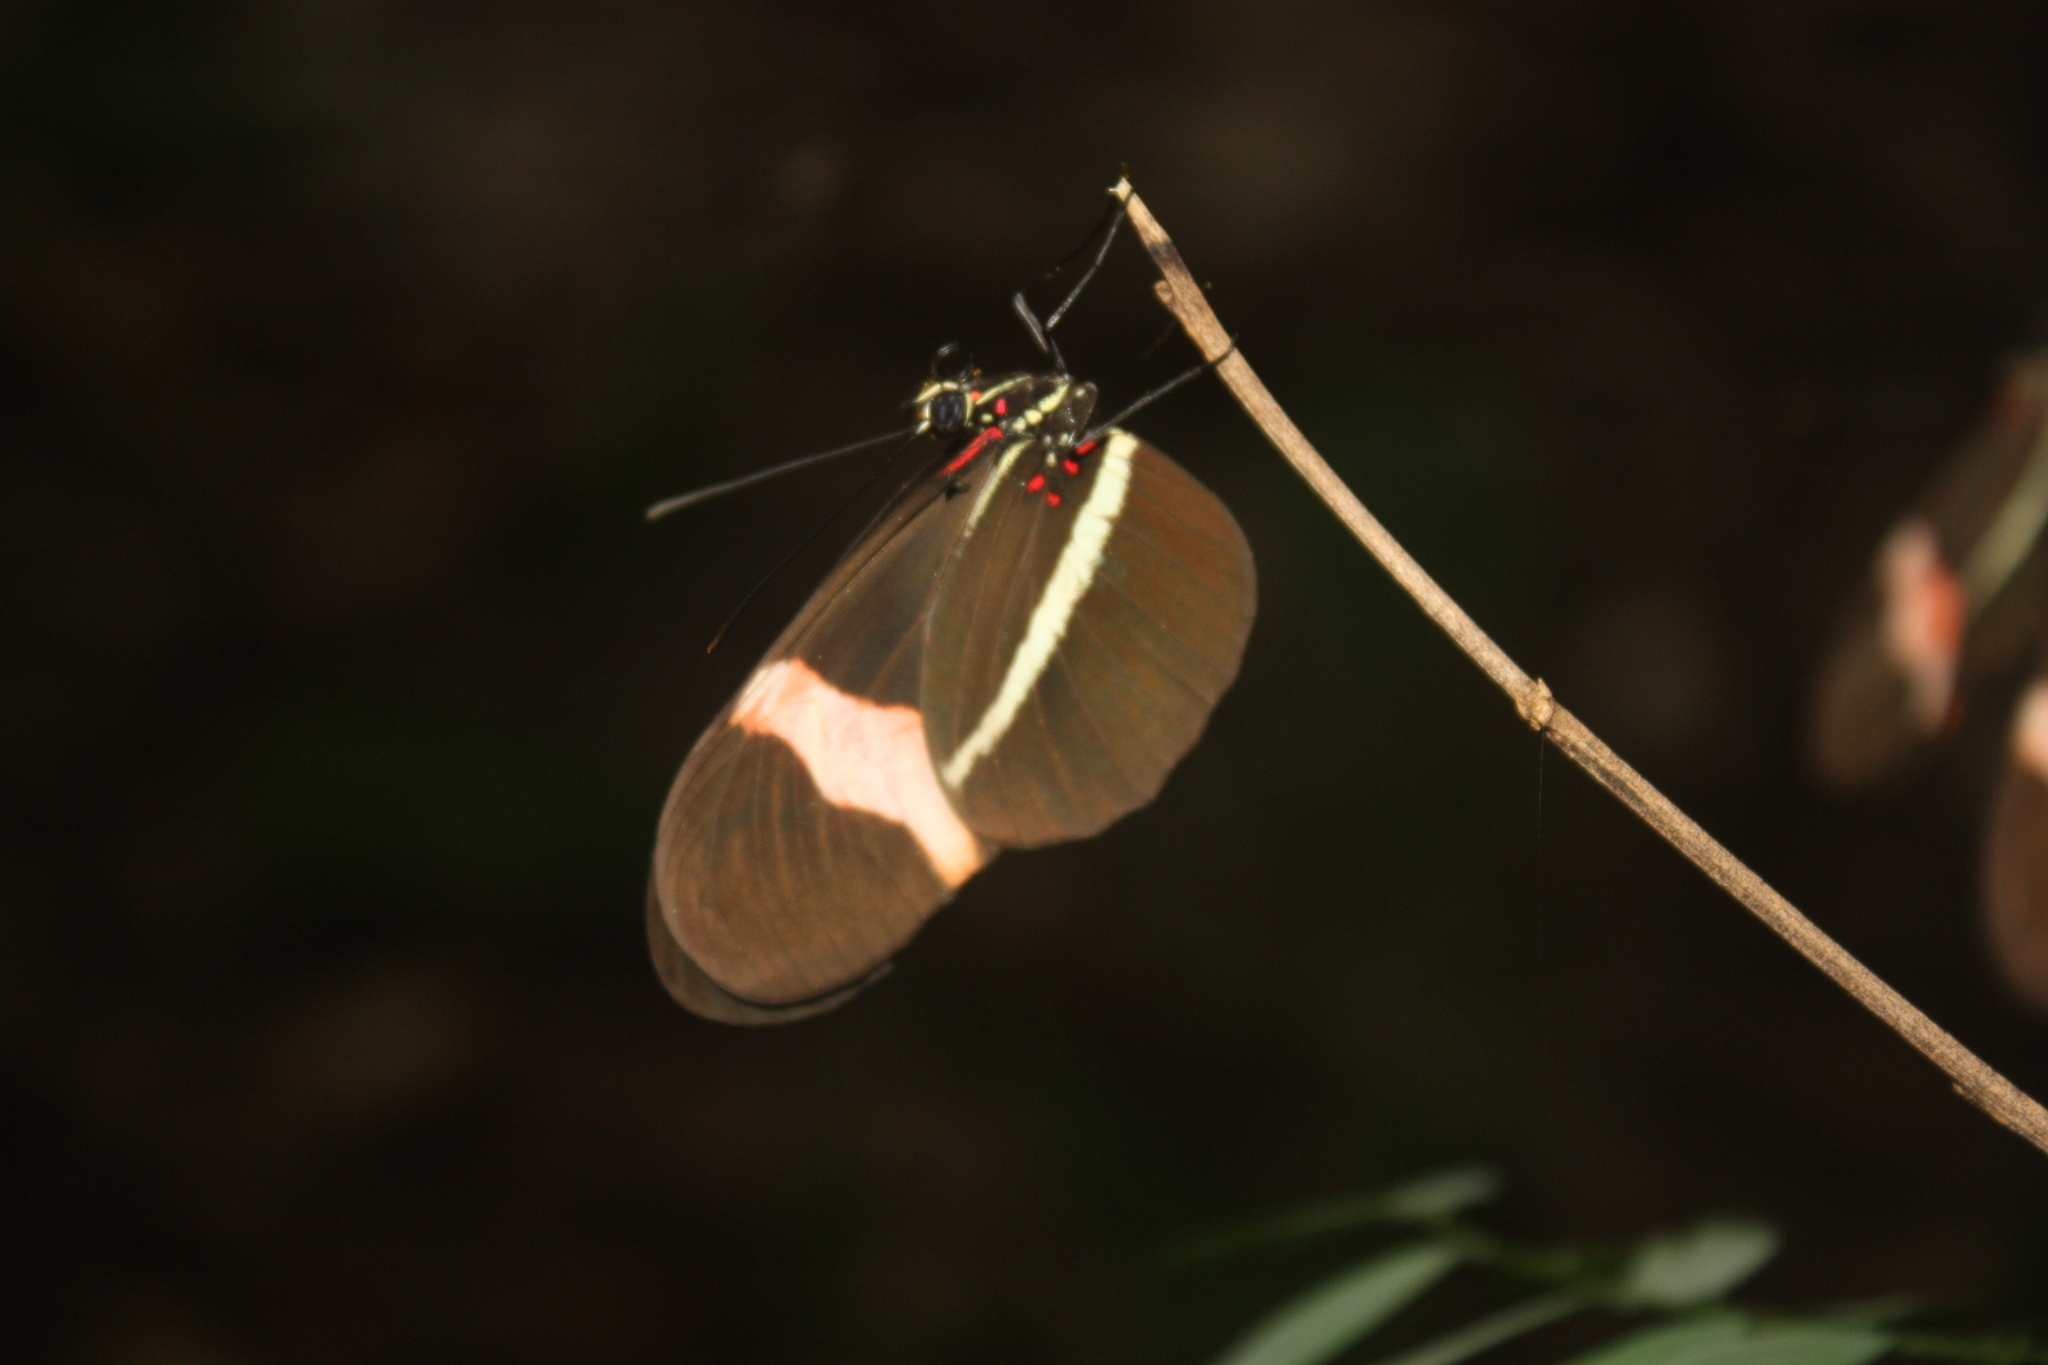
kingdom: Animalia
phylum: Arthropoda
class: Insecta
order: Lepidoptera
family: Nymphalidae
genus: Tirumala
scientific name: Tirumala petiverana
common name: Blue monarch
